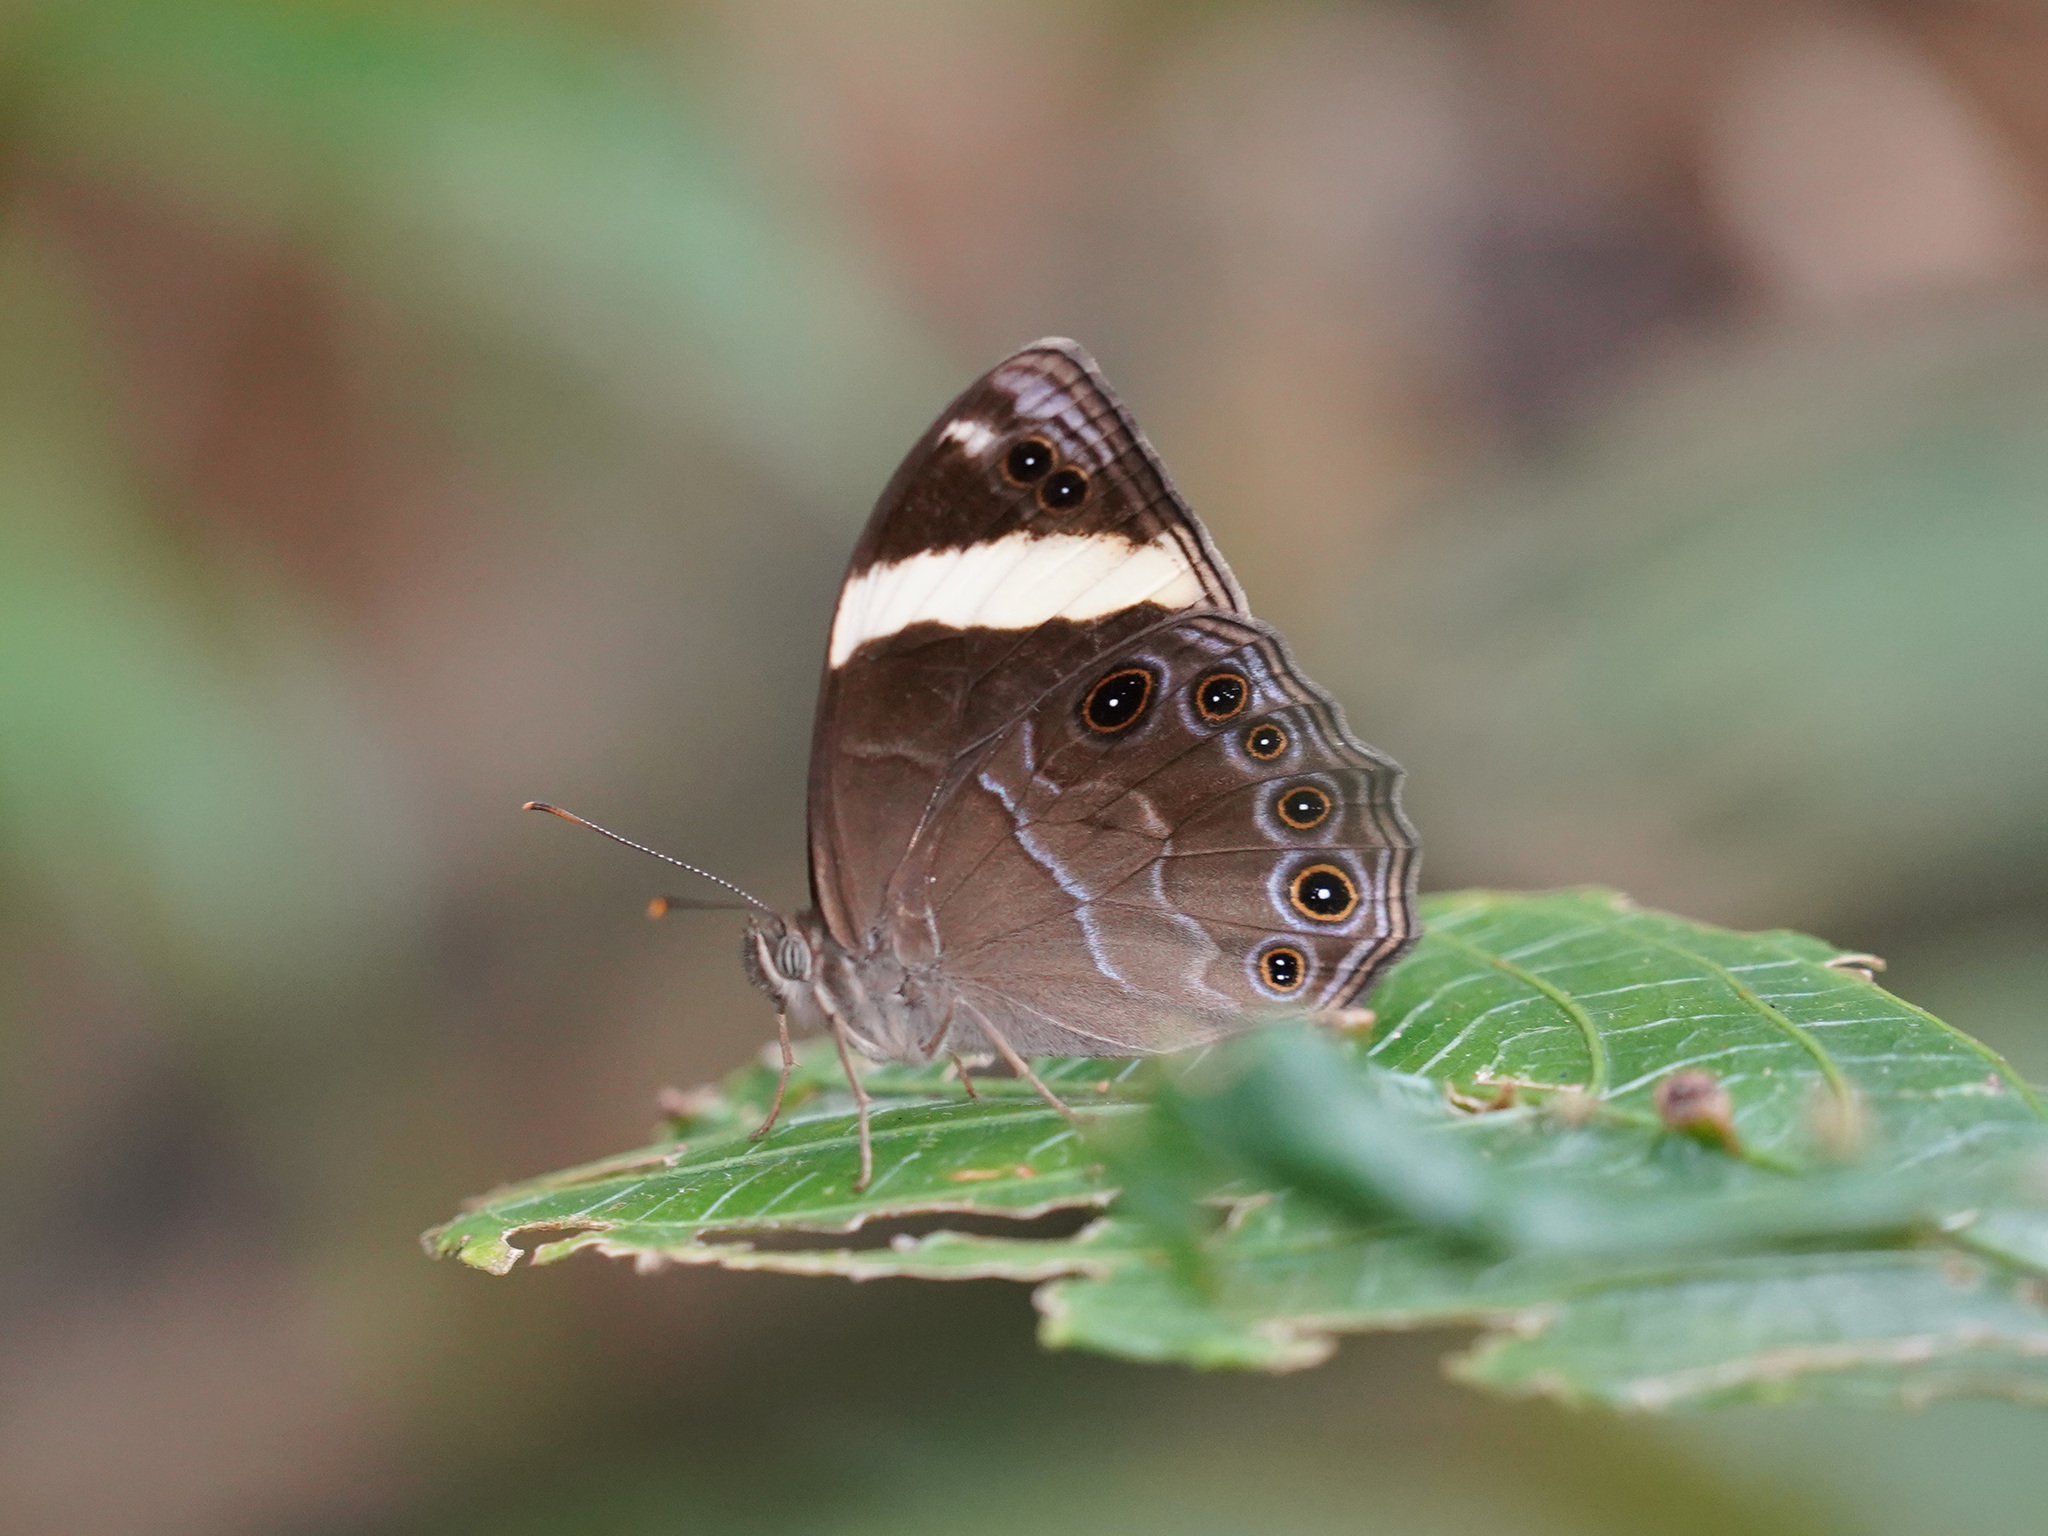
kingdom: Animalia
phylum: Arthropoda
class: Insecta
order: Lepidoptera
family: Nymphalidae
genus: Lethe
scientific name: Lethe verma
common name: Straight-banded treebrown
